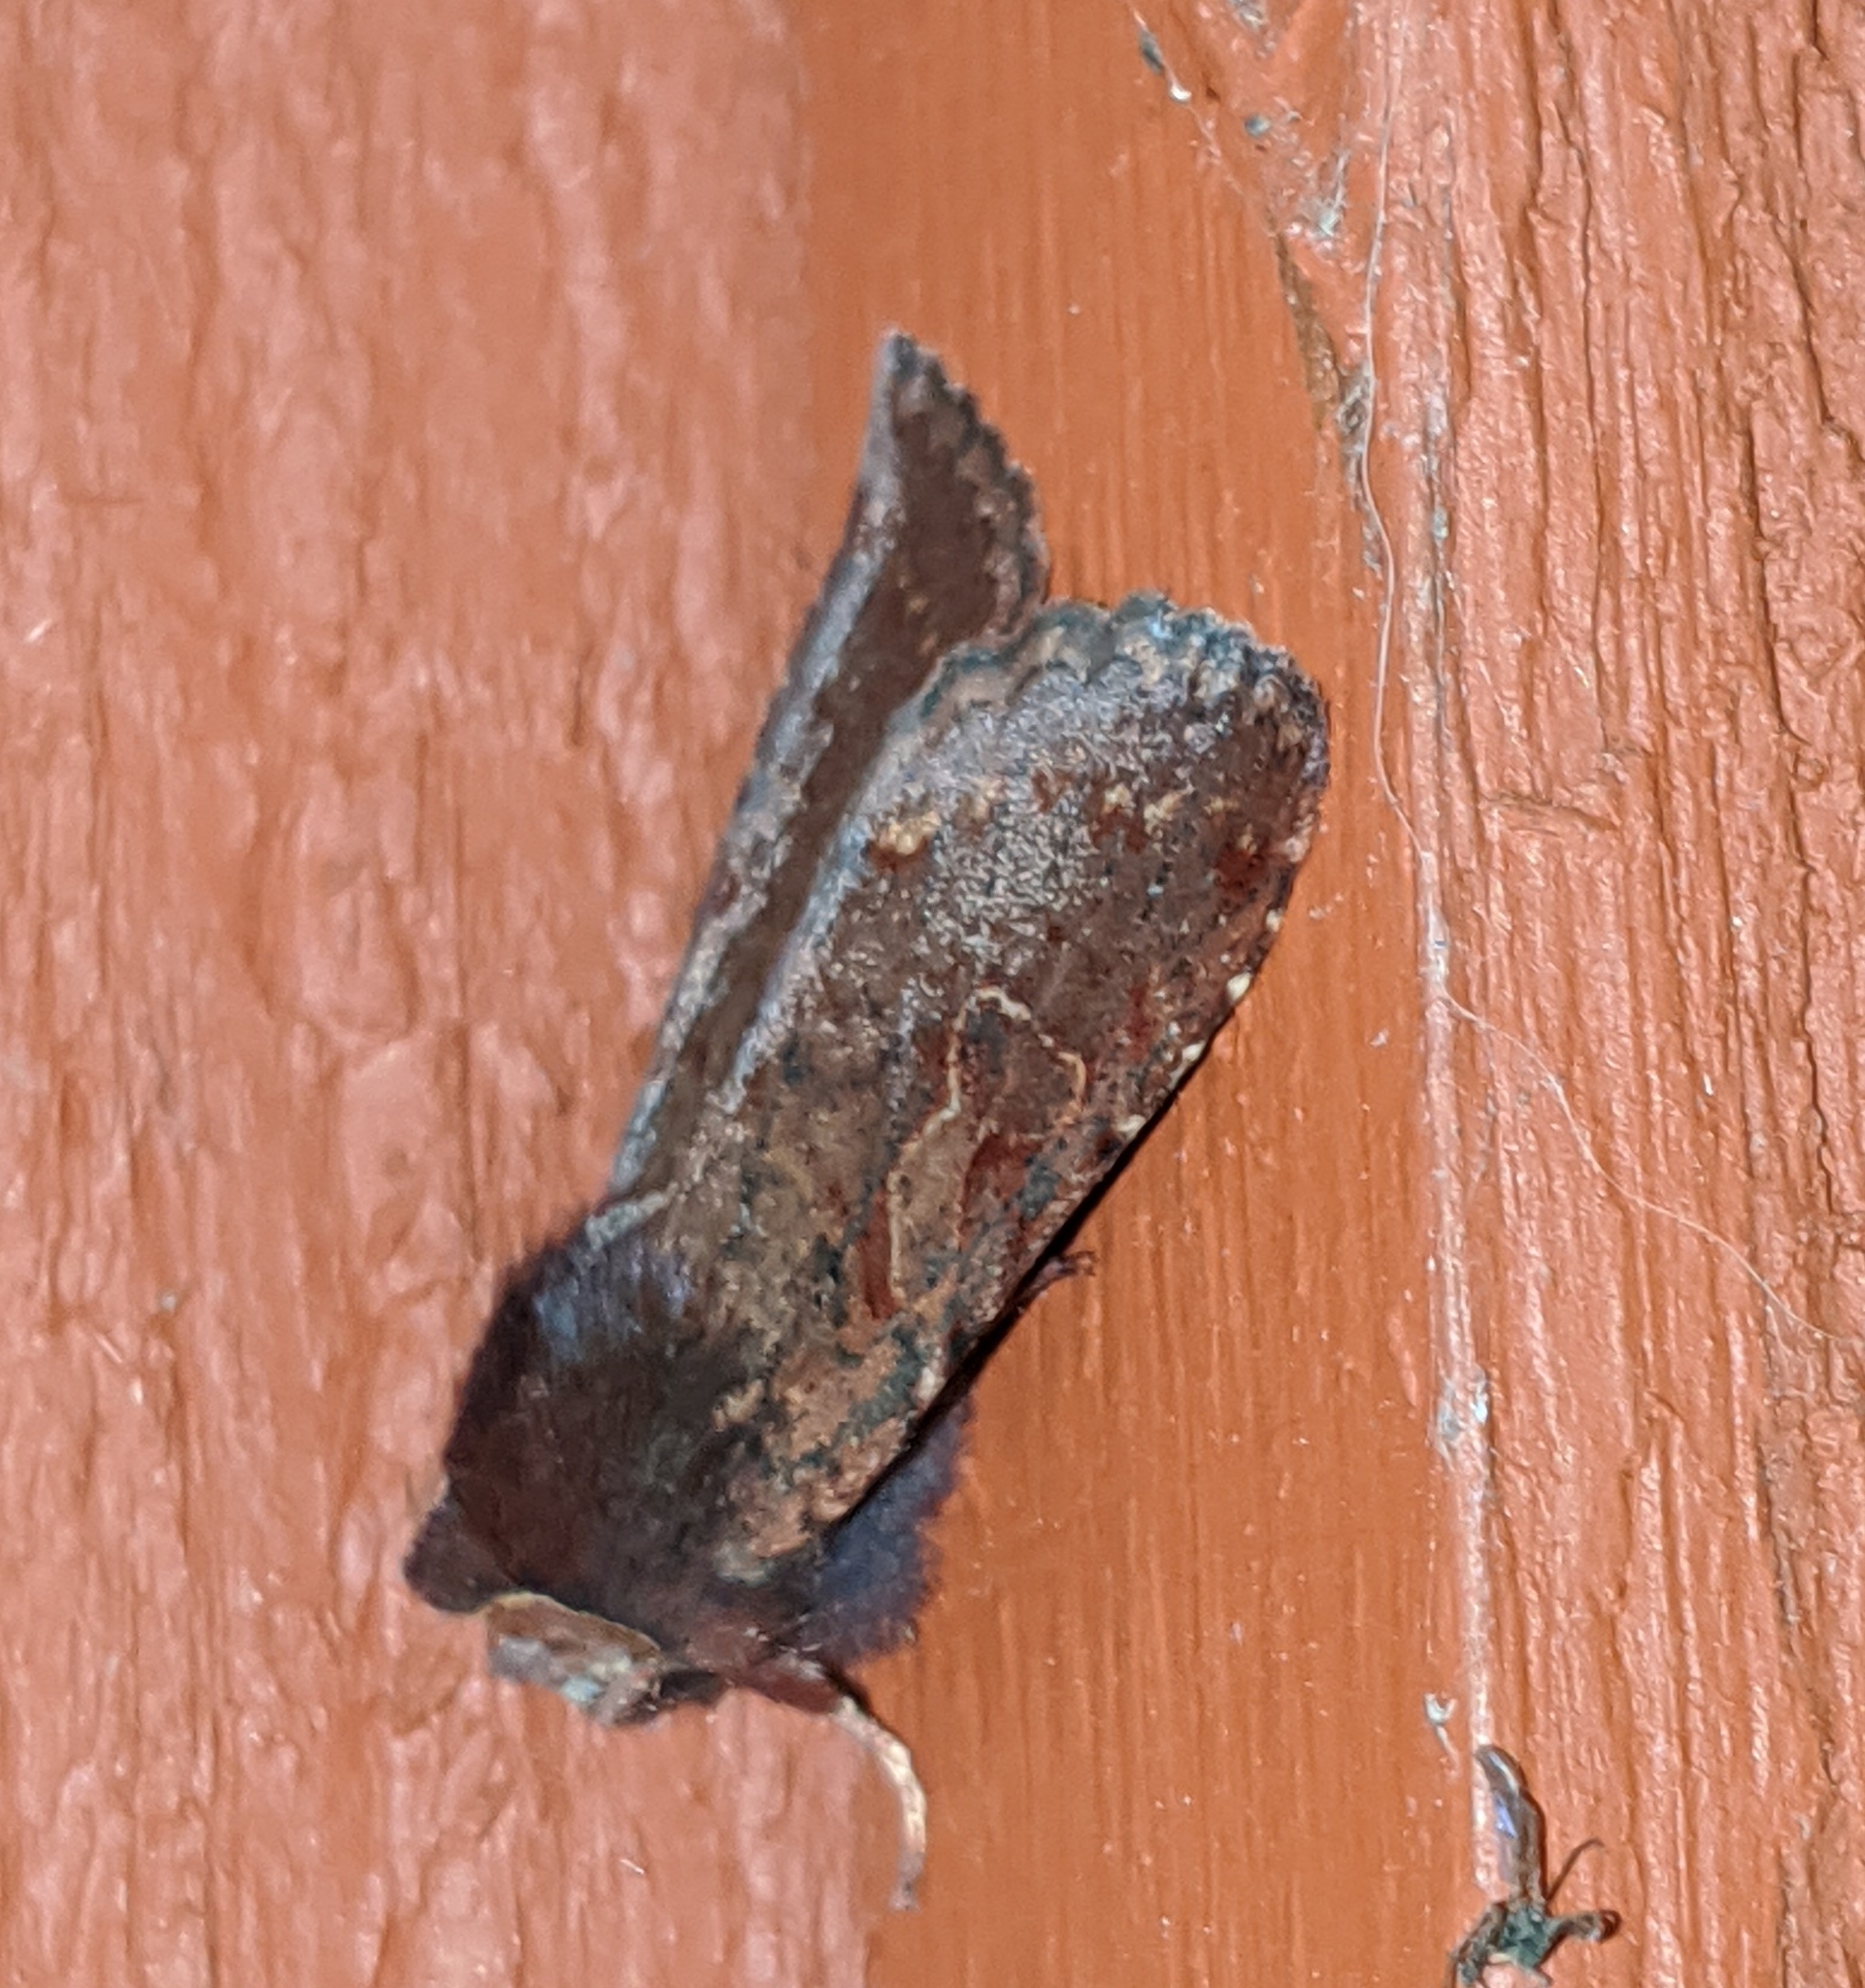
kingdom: Animalia
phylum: Arthropoda
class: Insecta
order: Lepidoptera
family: Noctuidae
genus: Orthosia
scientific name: Orthosia praeses
